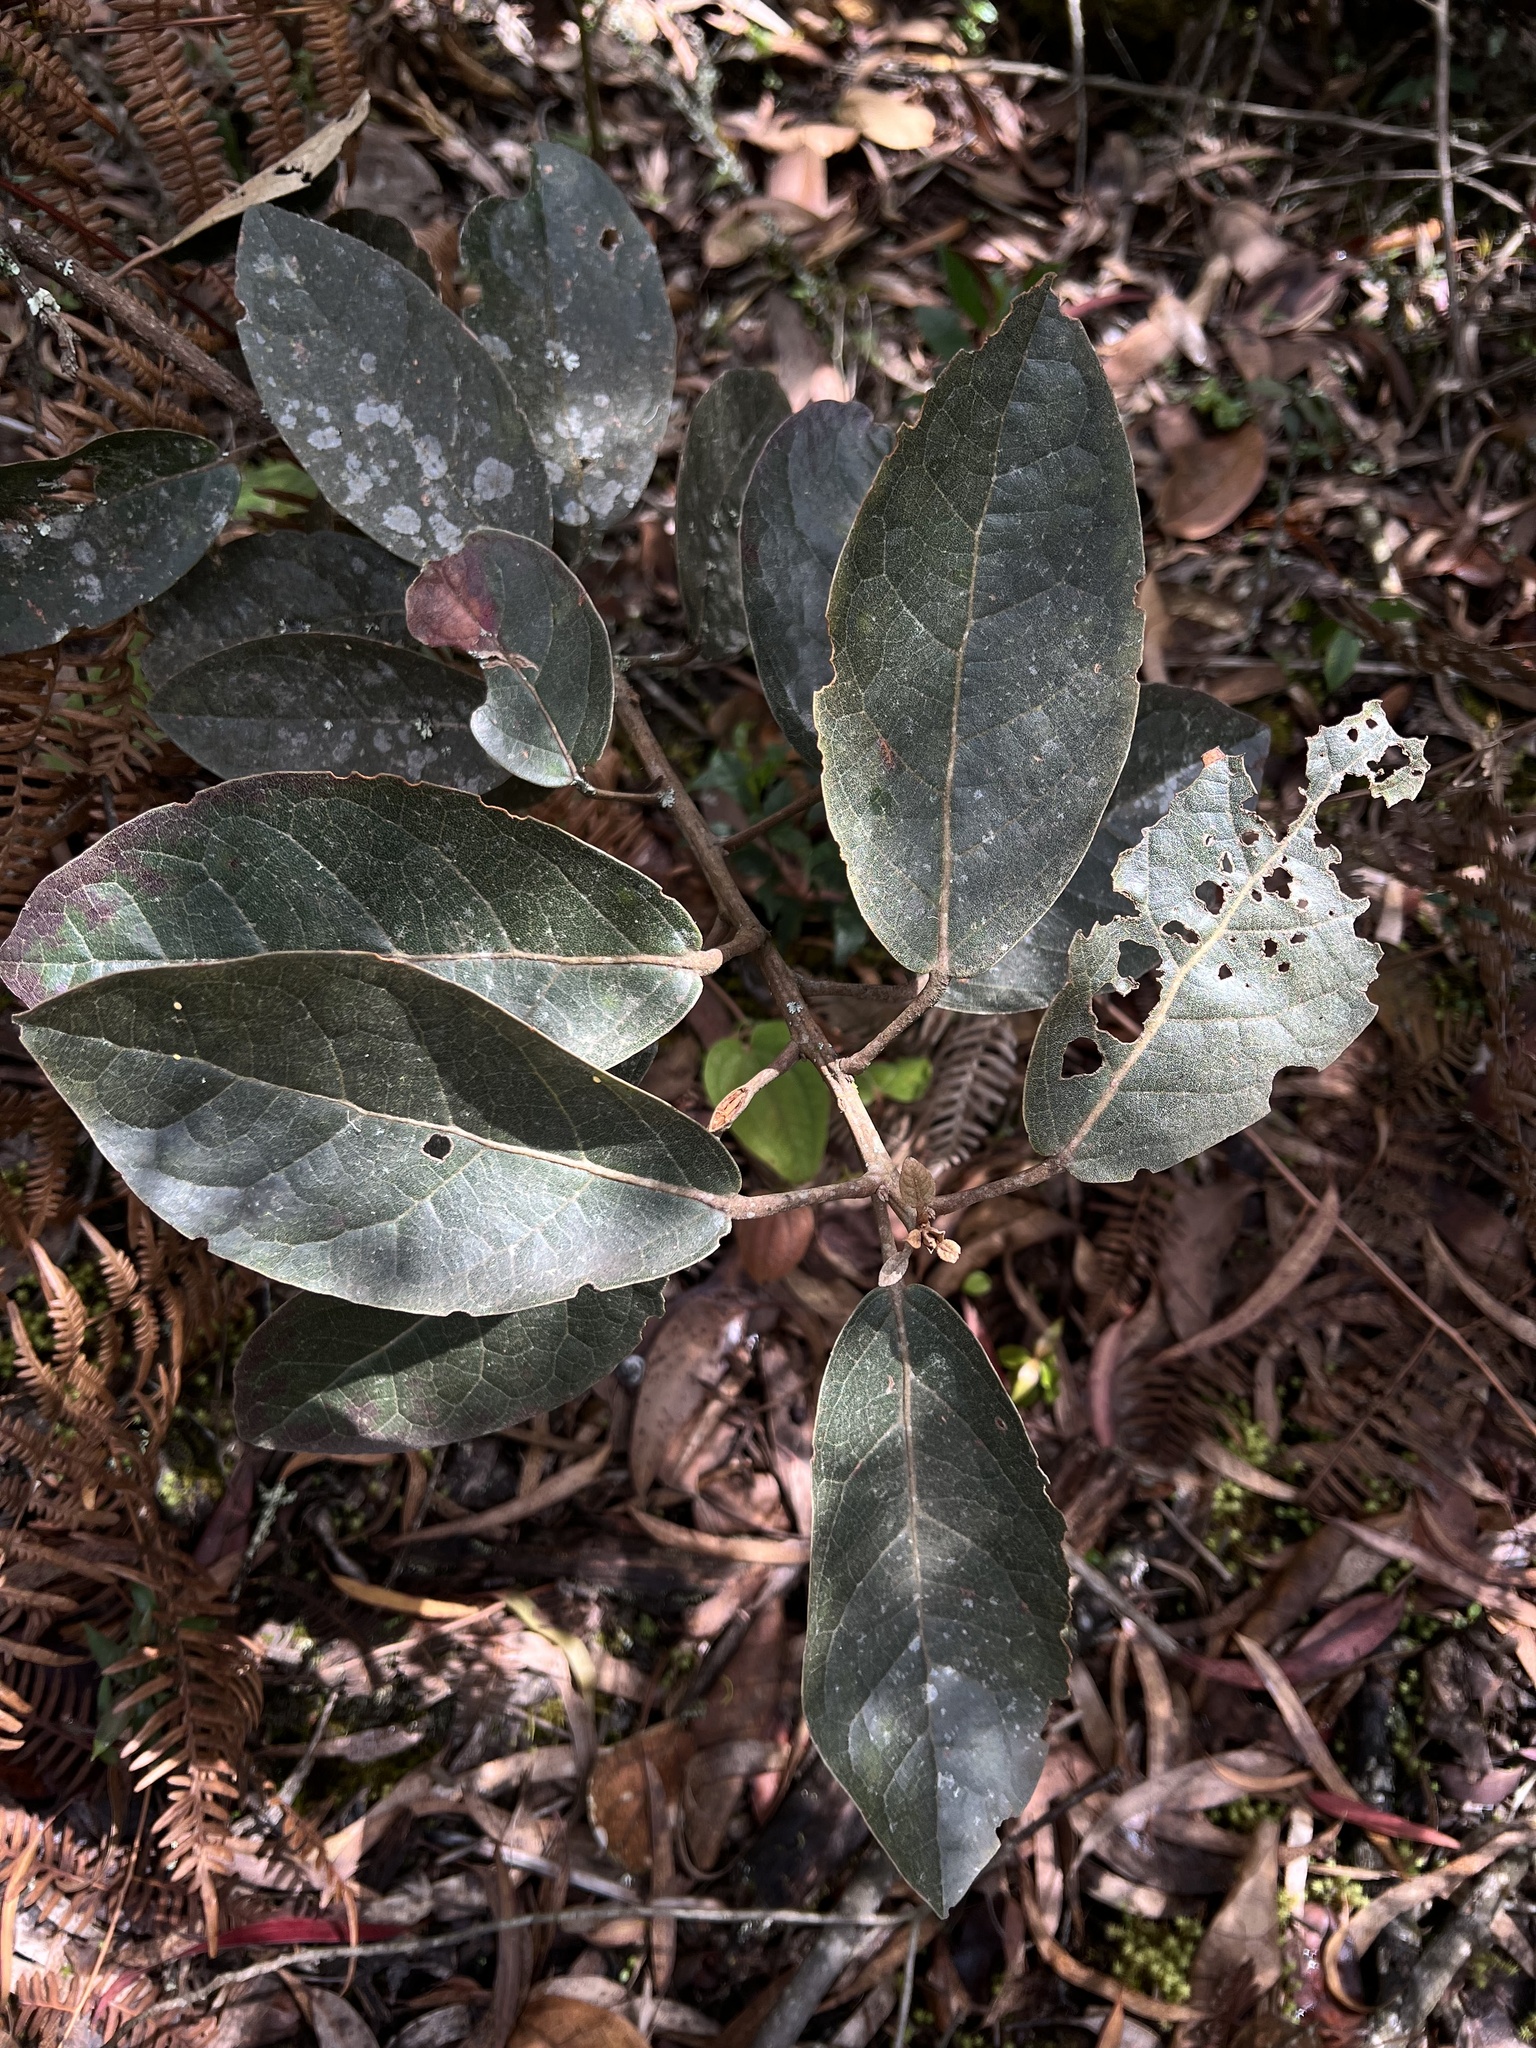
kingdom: Plantae
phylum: Tracheophyta
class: Magnoliopsida
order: Malpighiales
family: Phyllanthaceae
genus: Hieronyma
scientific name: Hieronyma rufa
